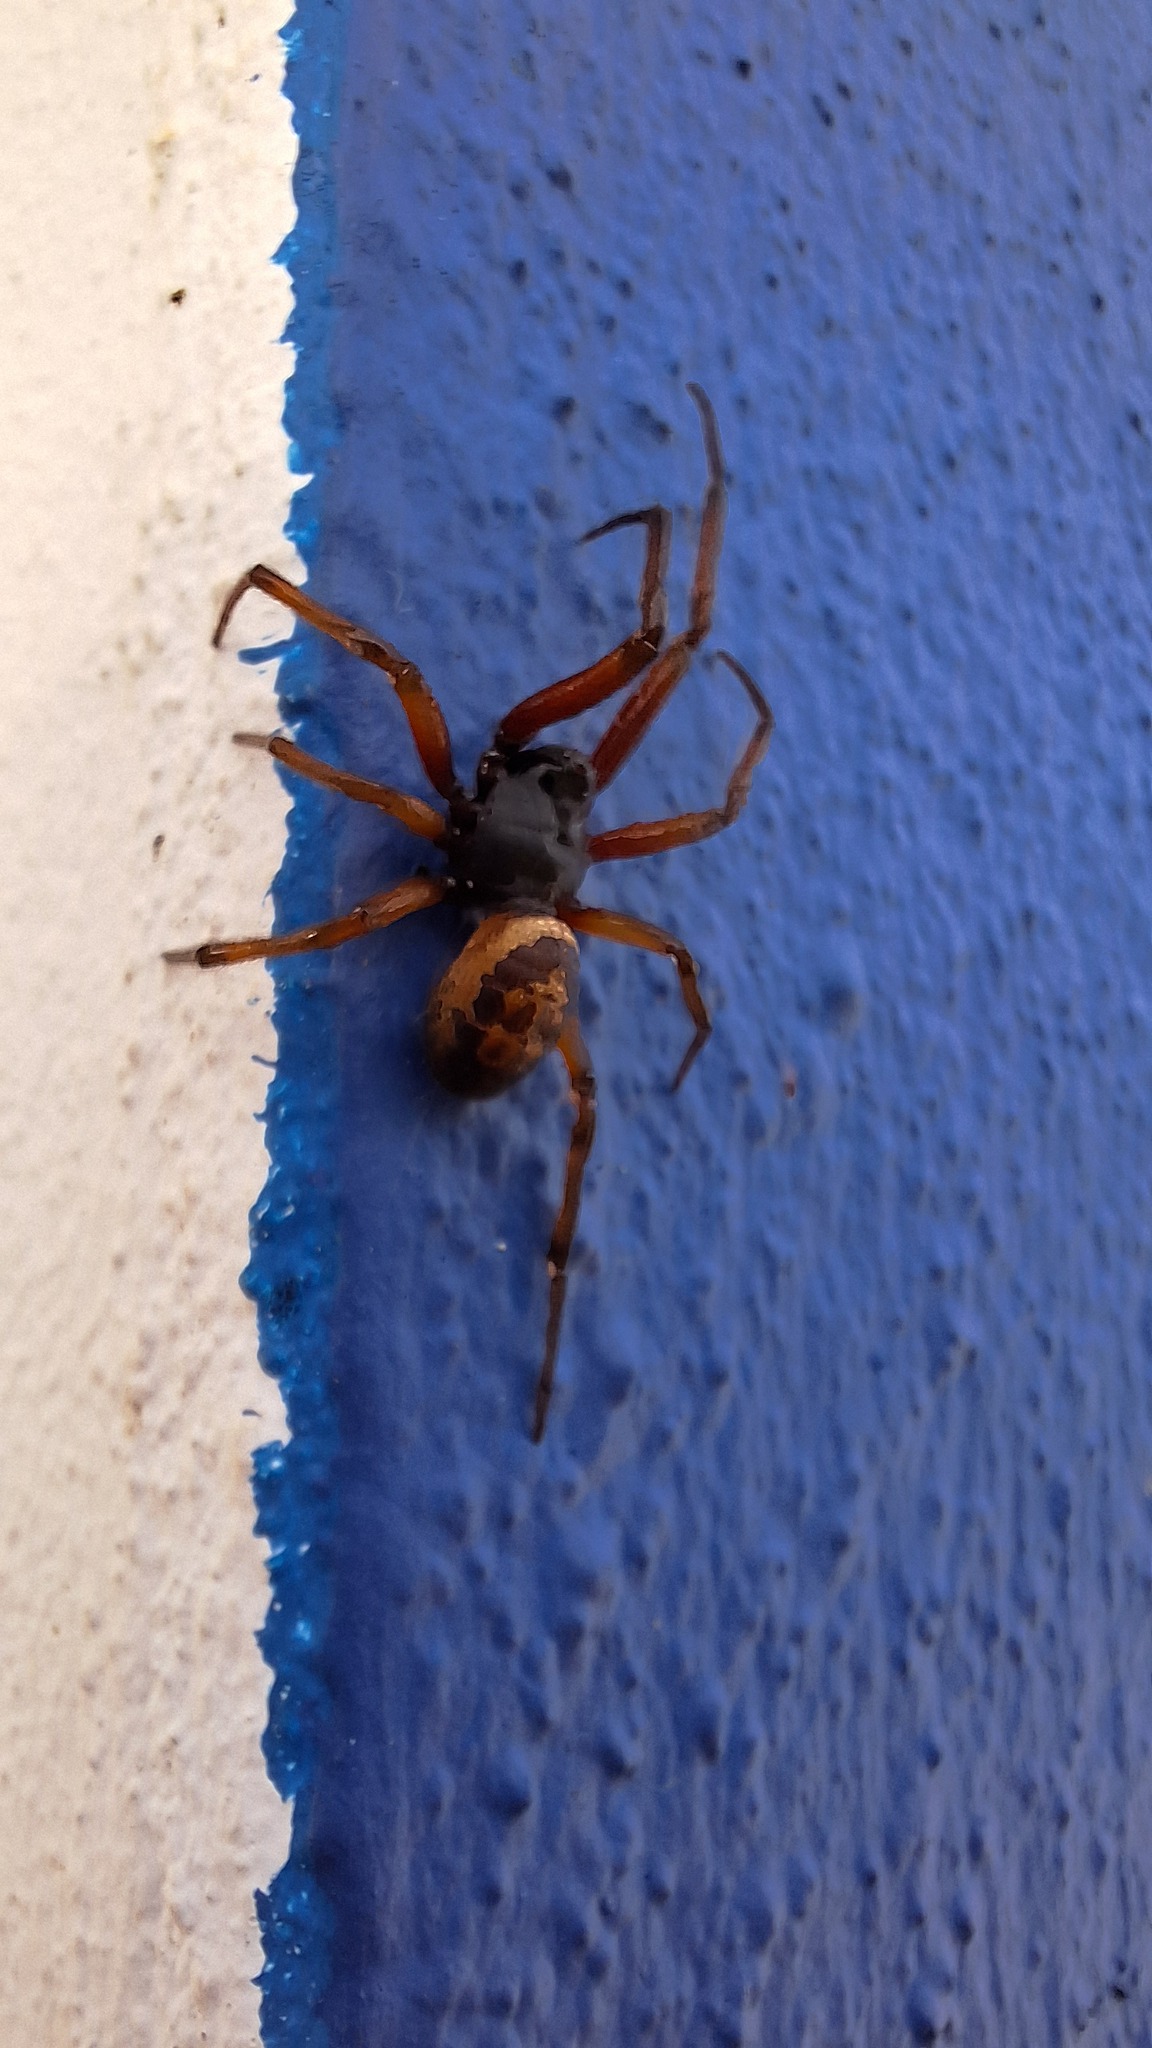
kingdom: Animalia
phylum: Arthropoda
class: Arachnida
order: Araneae
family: Theridiidae
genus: Steatoda
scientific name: Steatoda nobilis
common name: Cobweb weaver
